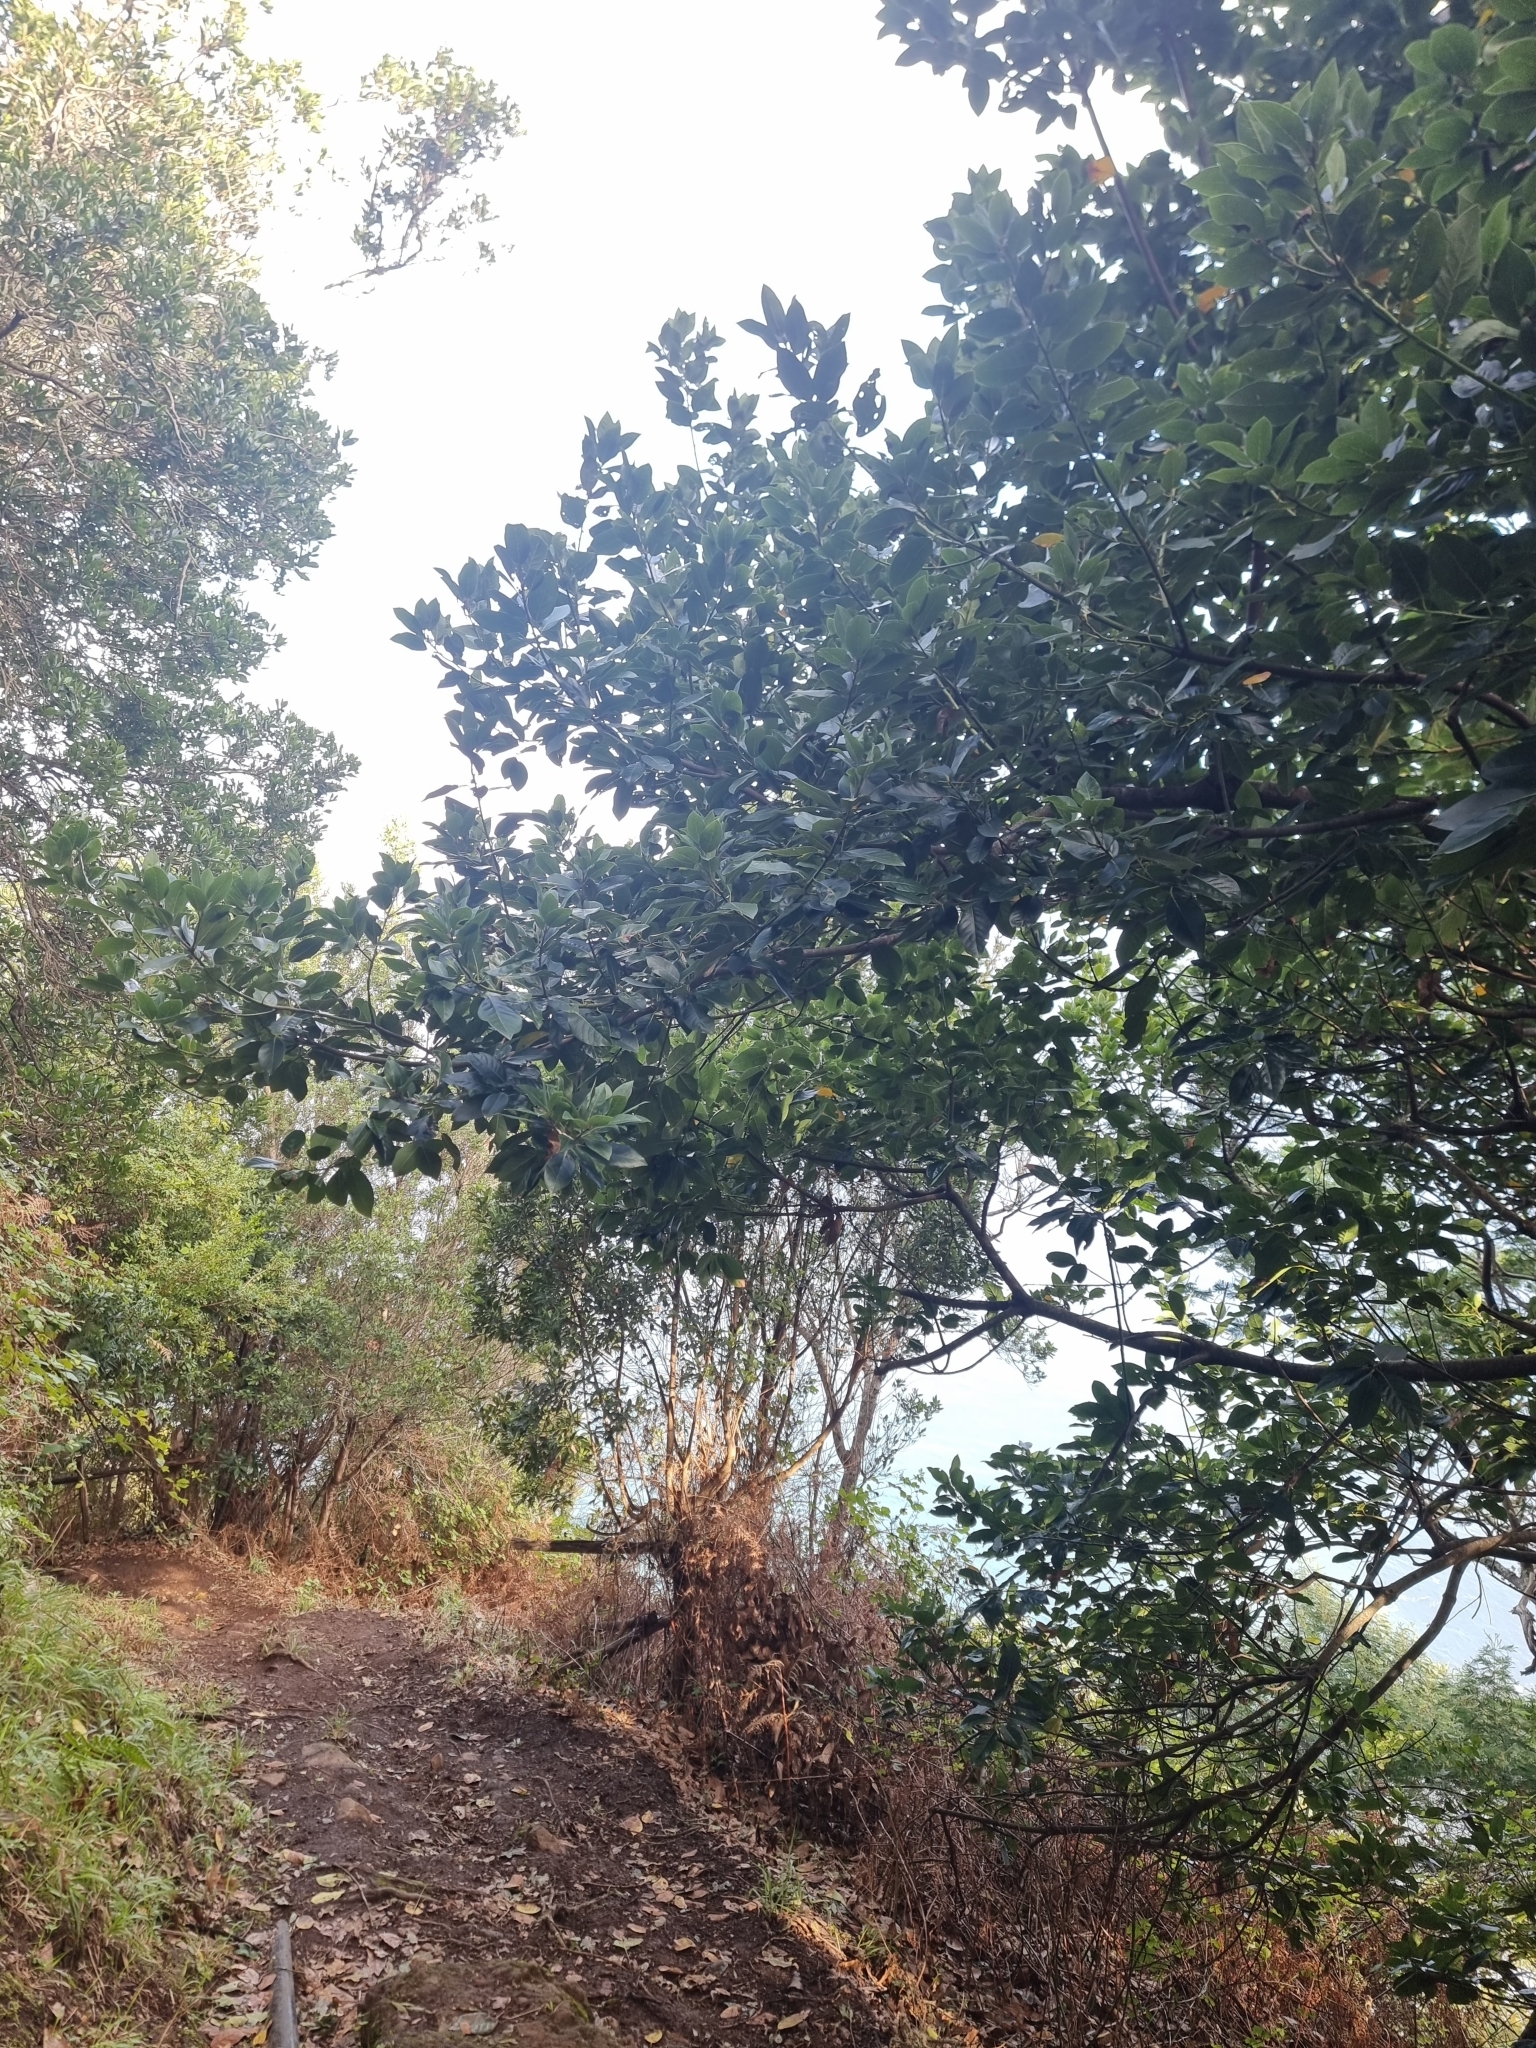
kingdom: Plantae
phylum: Tracheophyta
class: Magnoliopsida
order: Laurales
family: Lauraceae
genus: Laurus
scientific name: Laurus novocanariensis
